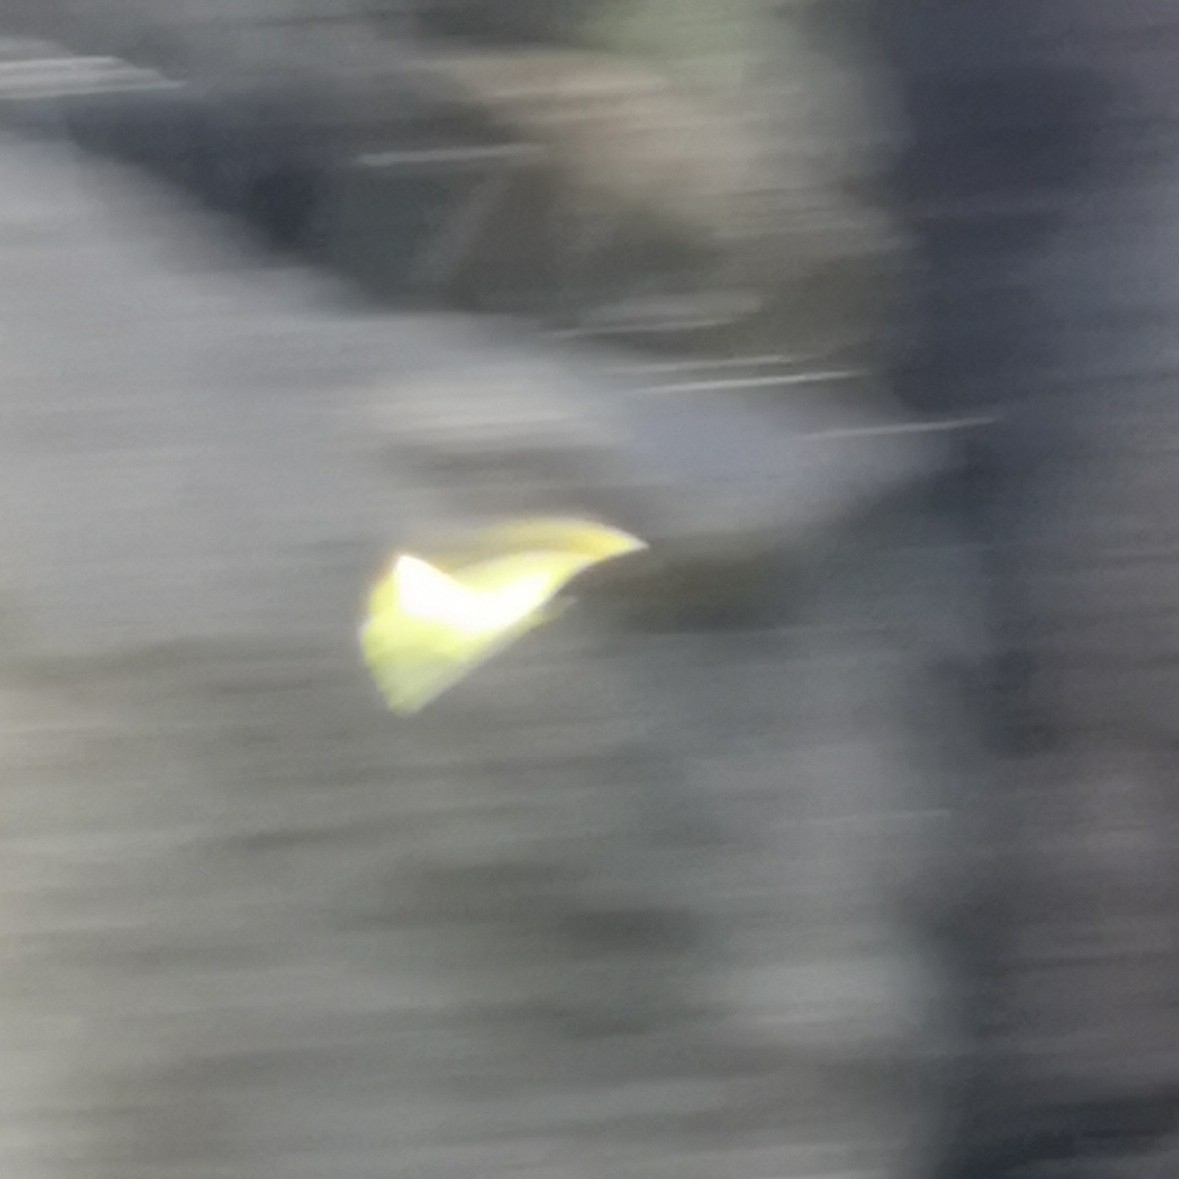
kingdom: Animalia
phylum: Arthropoda
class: Insecta
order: Lepidoptera
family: Pieridae
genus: Gonepteryx
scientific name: Gonepteryx cleobule
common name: Canary brimstone
